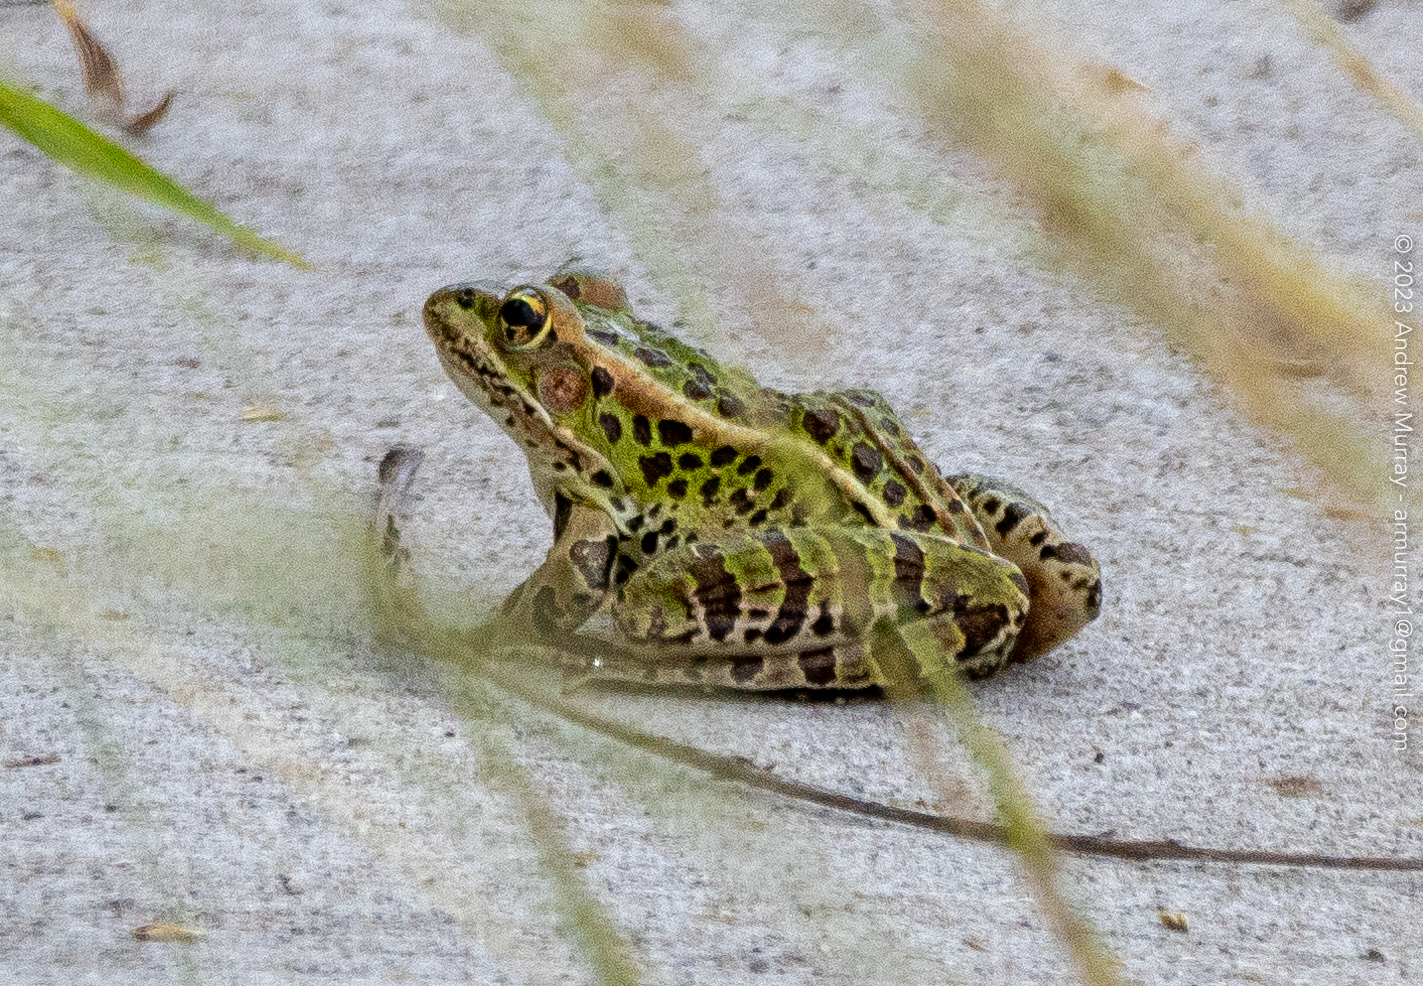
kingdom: Animalia
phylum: Chordata
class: Amphibia
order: Anura
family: Ranidae
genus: Lithobates
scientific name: Lithobates pipiens
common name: Northern leopard frog
